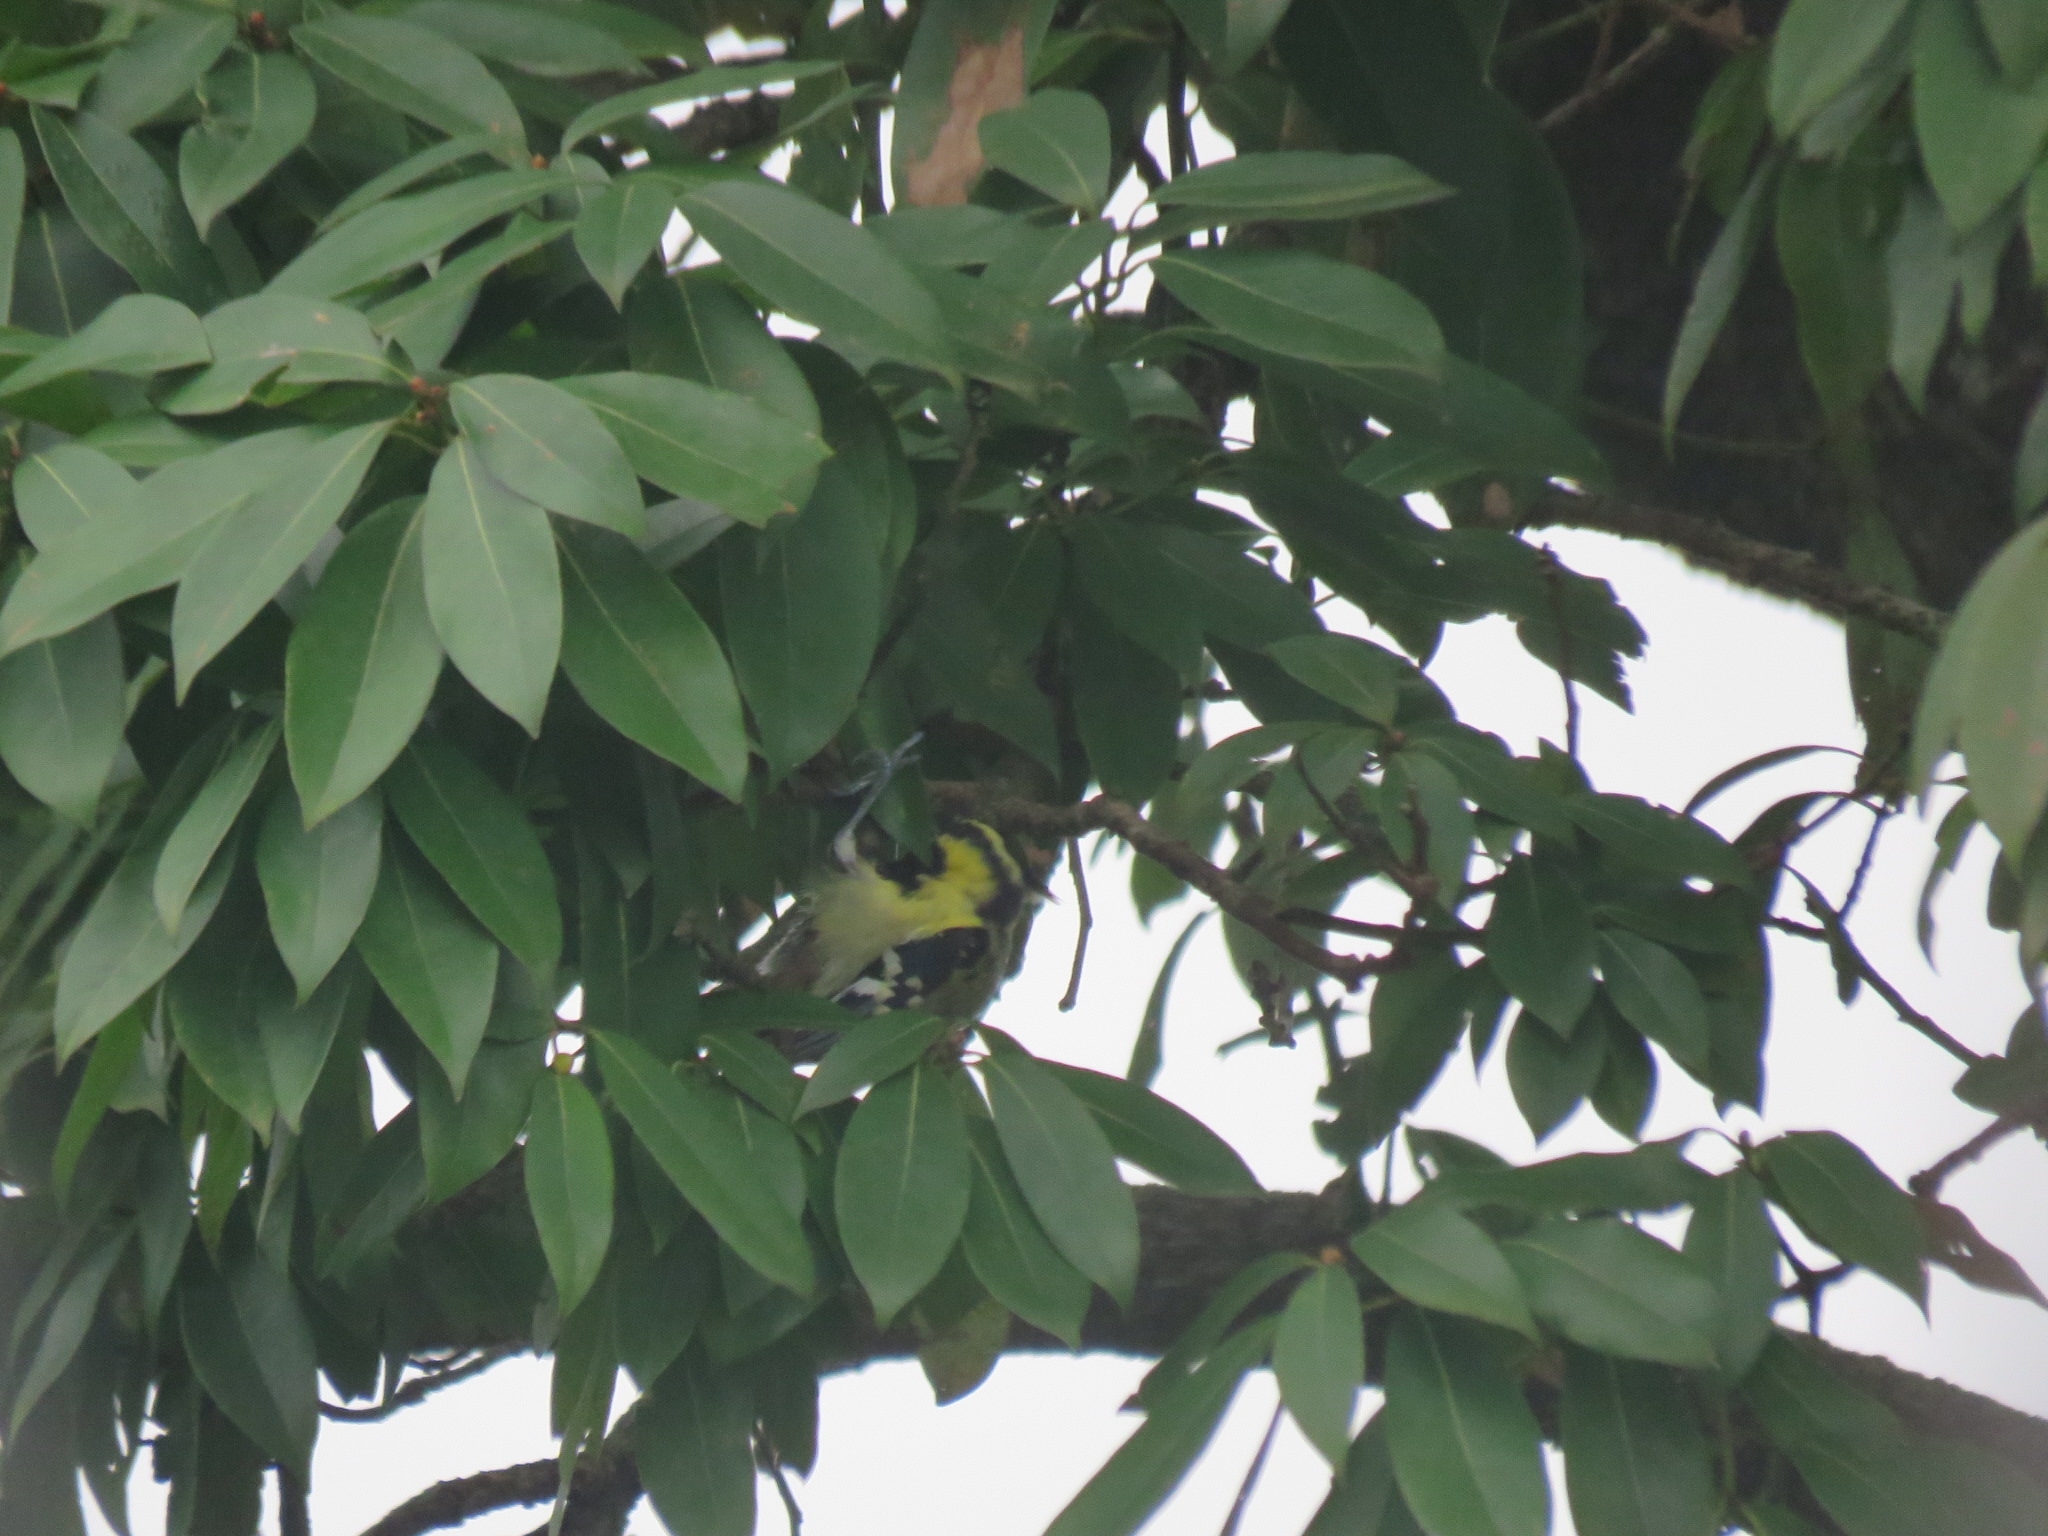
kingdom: Animalia
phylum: Chordata
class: Aves
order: Passeriformes
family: Paridae
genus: Parus
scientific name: Parus xanthogenys
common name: Black-lored tit
